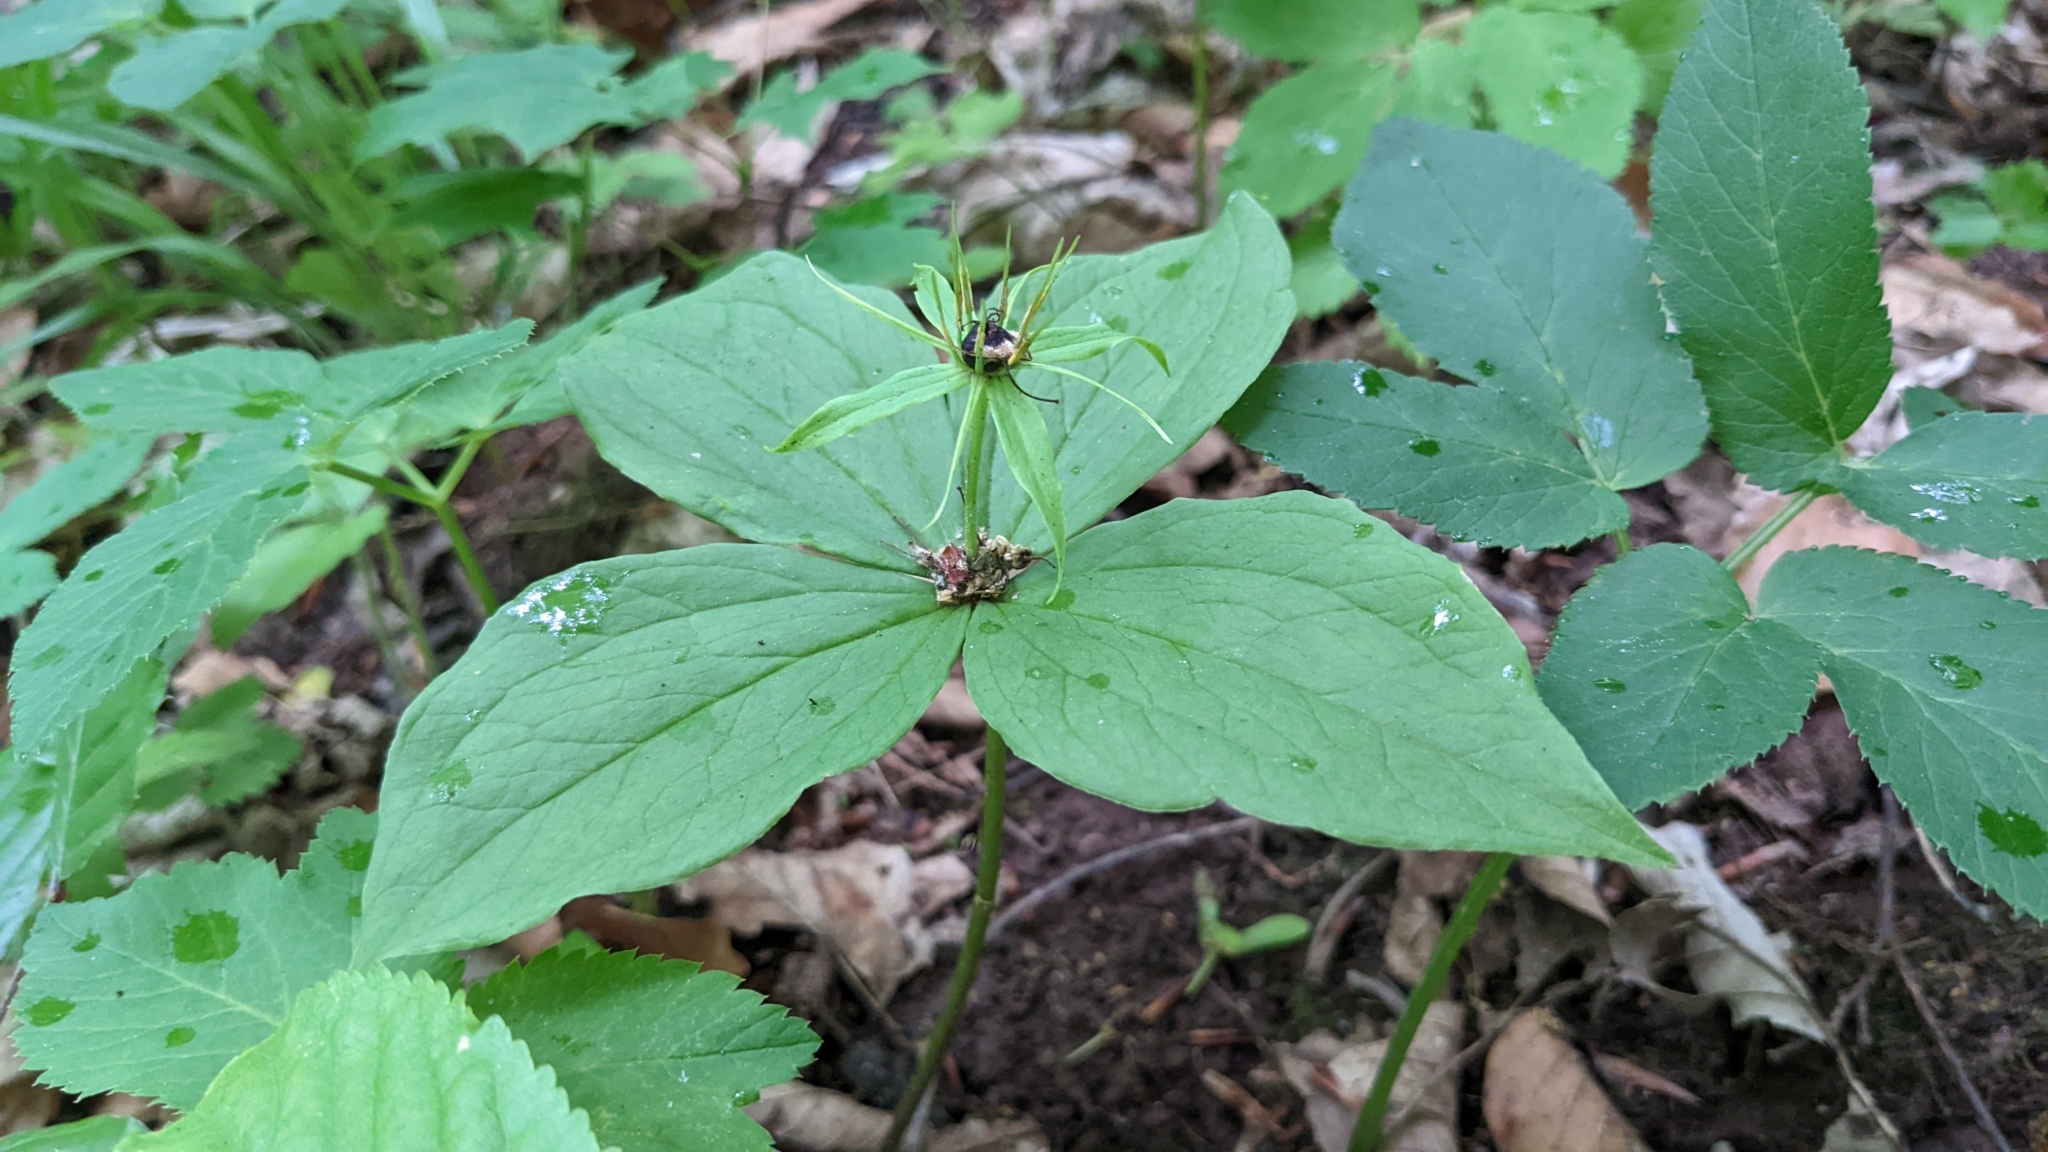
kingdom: Plantae
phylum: Tracheophyta
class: Liliopsida
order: Liliales
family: Melanthiaceae
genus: Paris
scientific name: Paris quadrifolia
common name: Herb-paris
